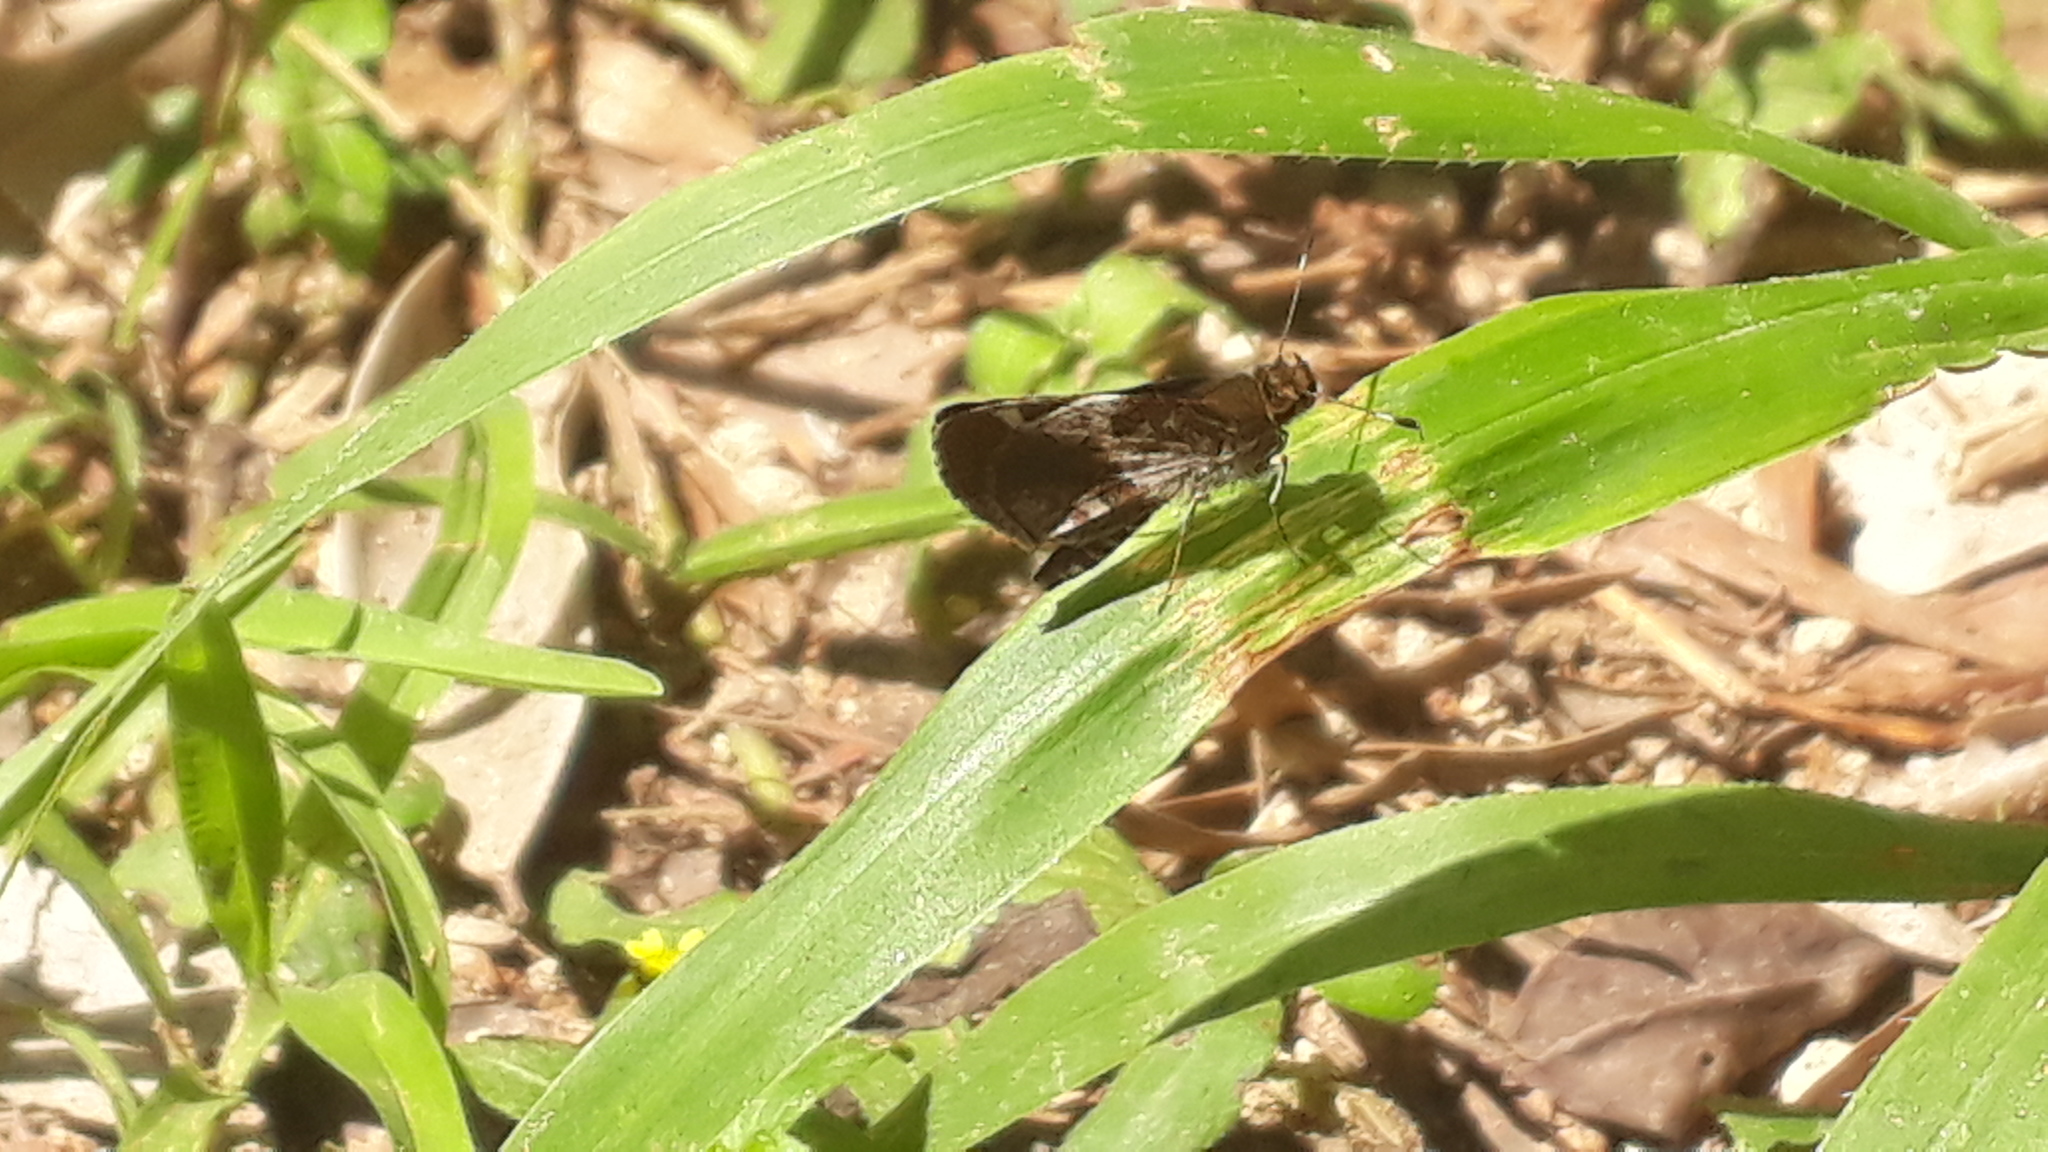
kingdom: Animalia
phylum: Arthropoda
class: Insecta
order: Lepidoptera
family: Hesperiidae
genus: Callimormus
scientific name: Callimormus
